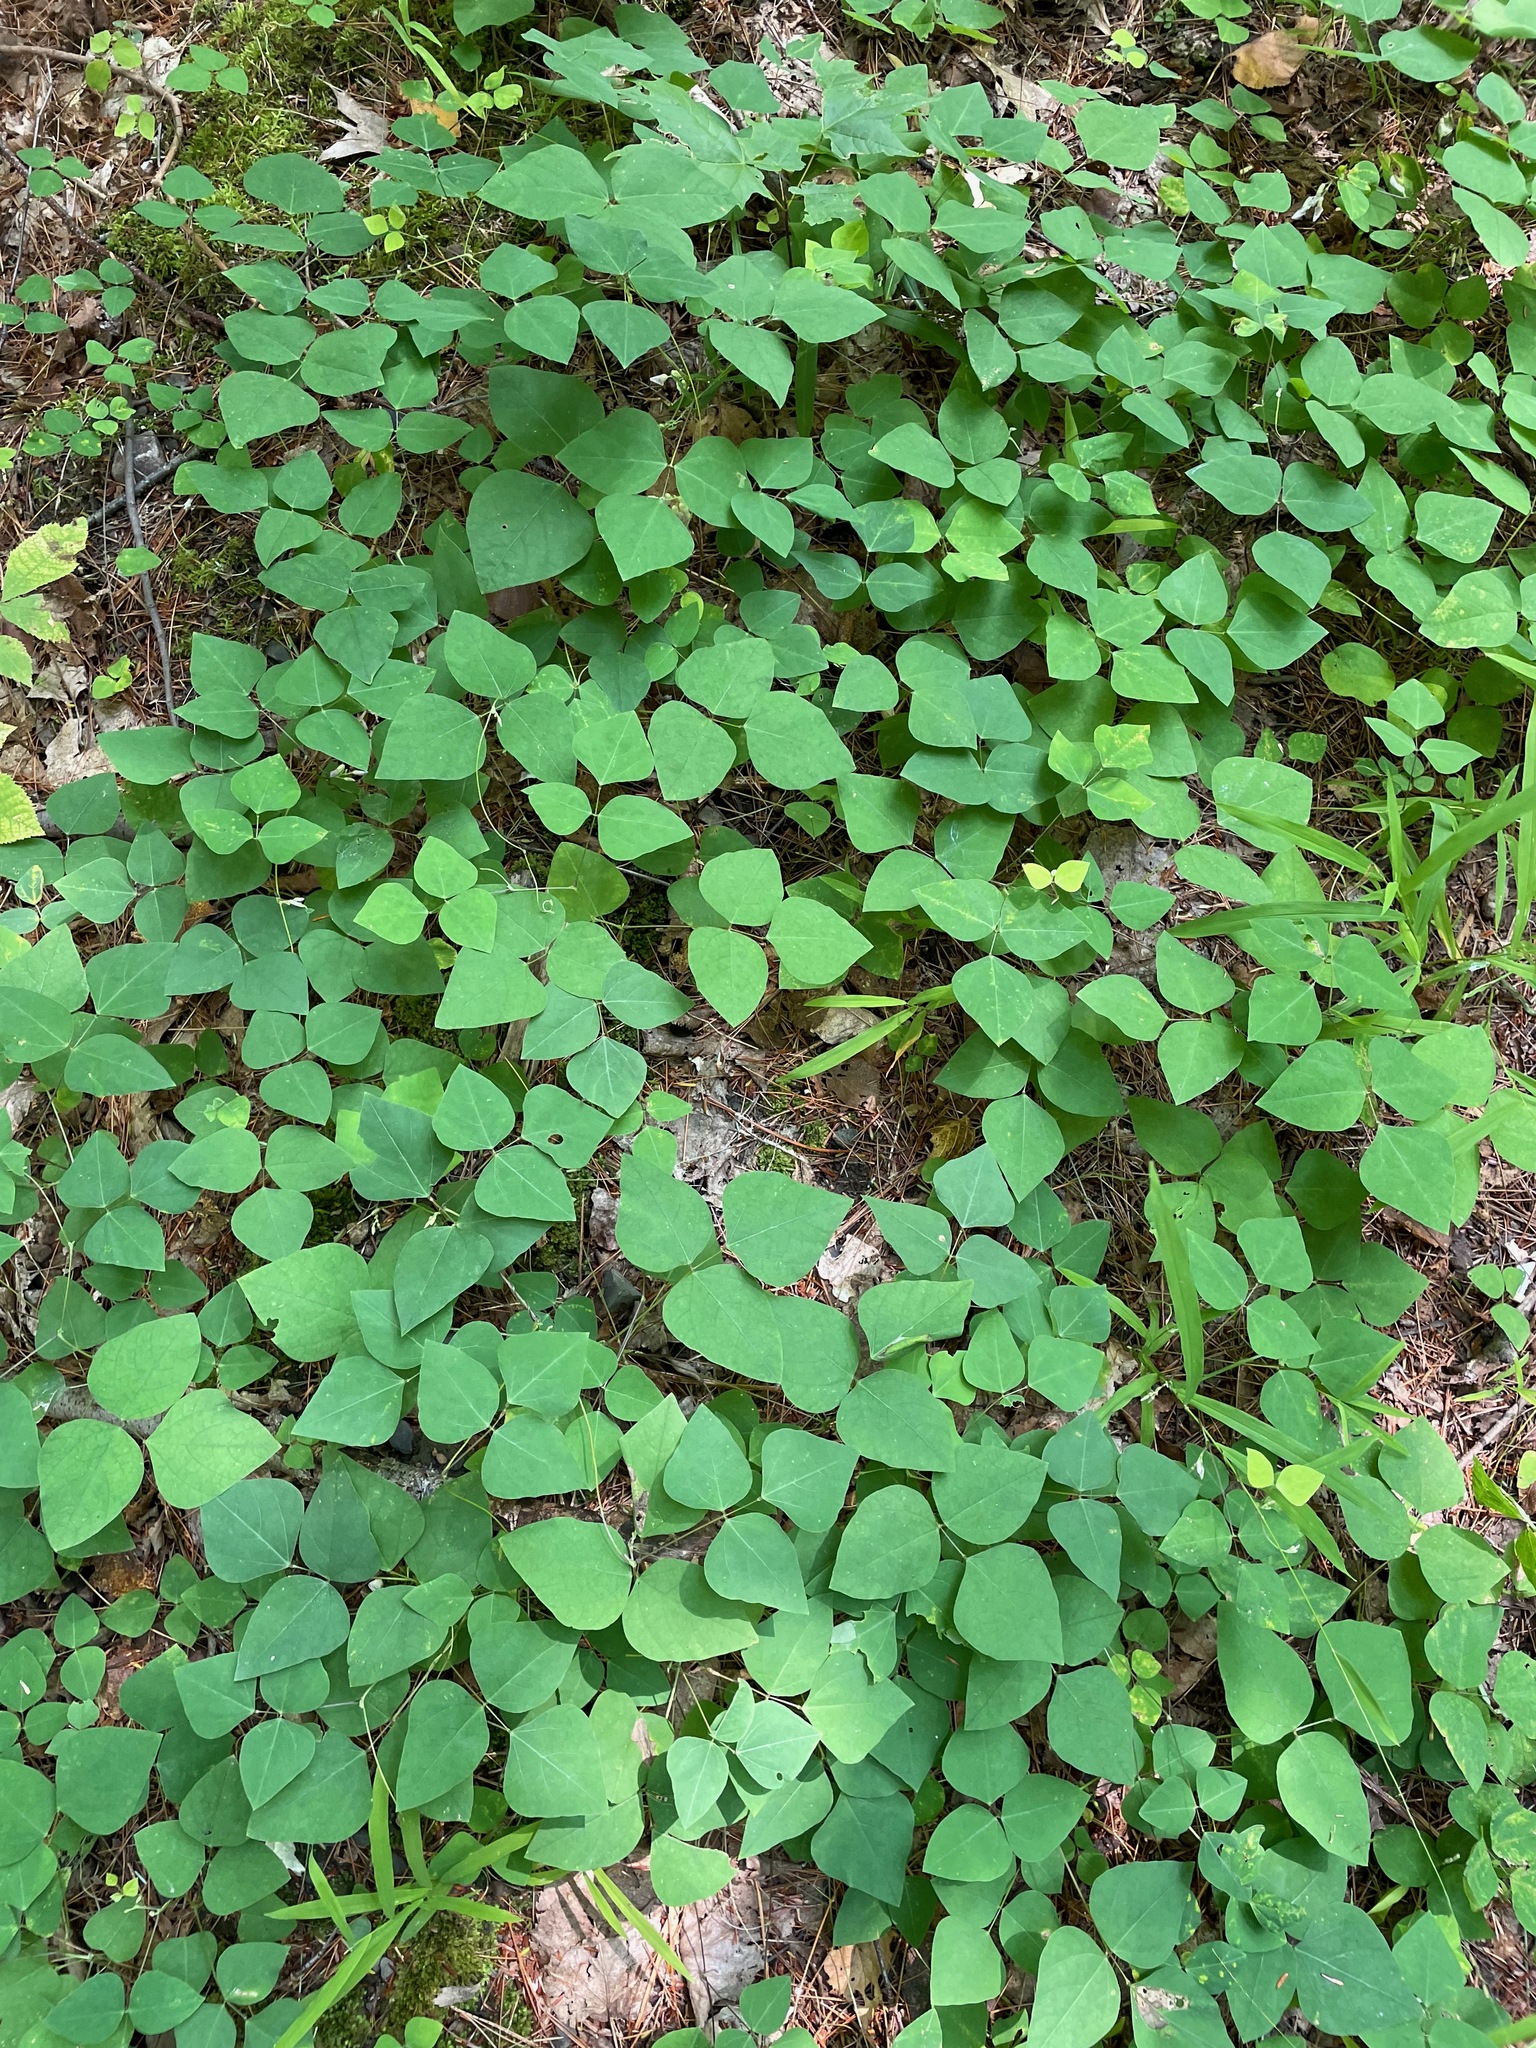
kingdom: Plantae
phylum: Tracheophyta
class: Magnoliopsida
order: Fabales
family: Fabaceae
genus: Amphicarpaea
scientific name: Amphicarpaea bracteata
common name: American hog peanut
